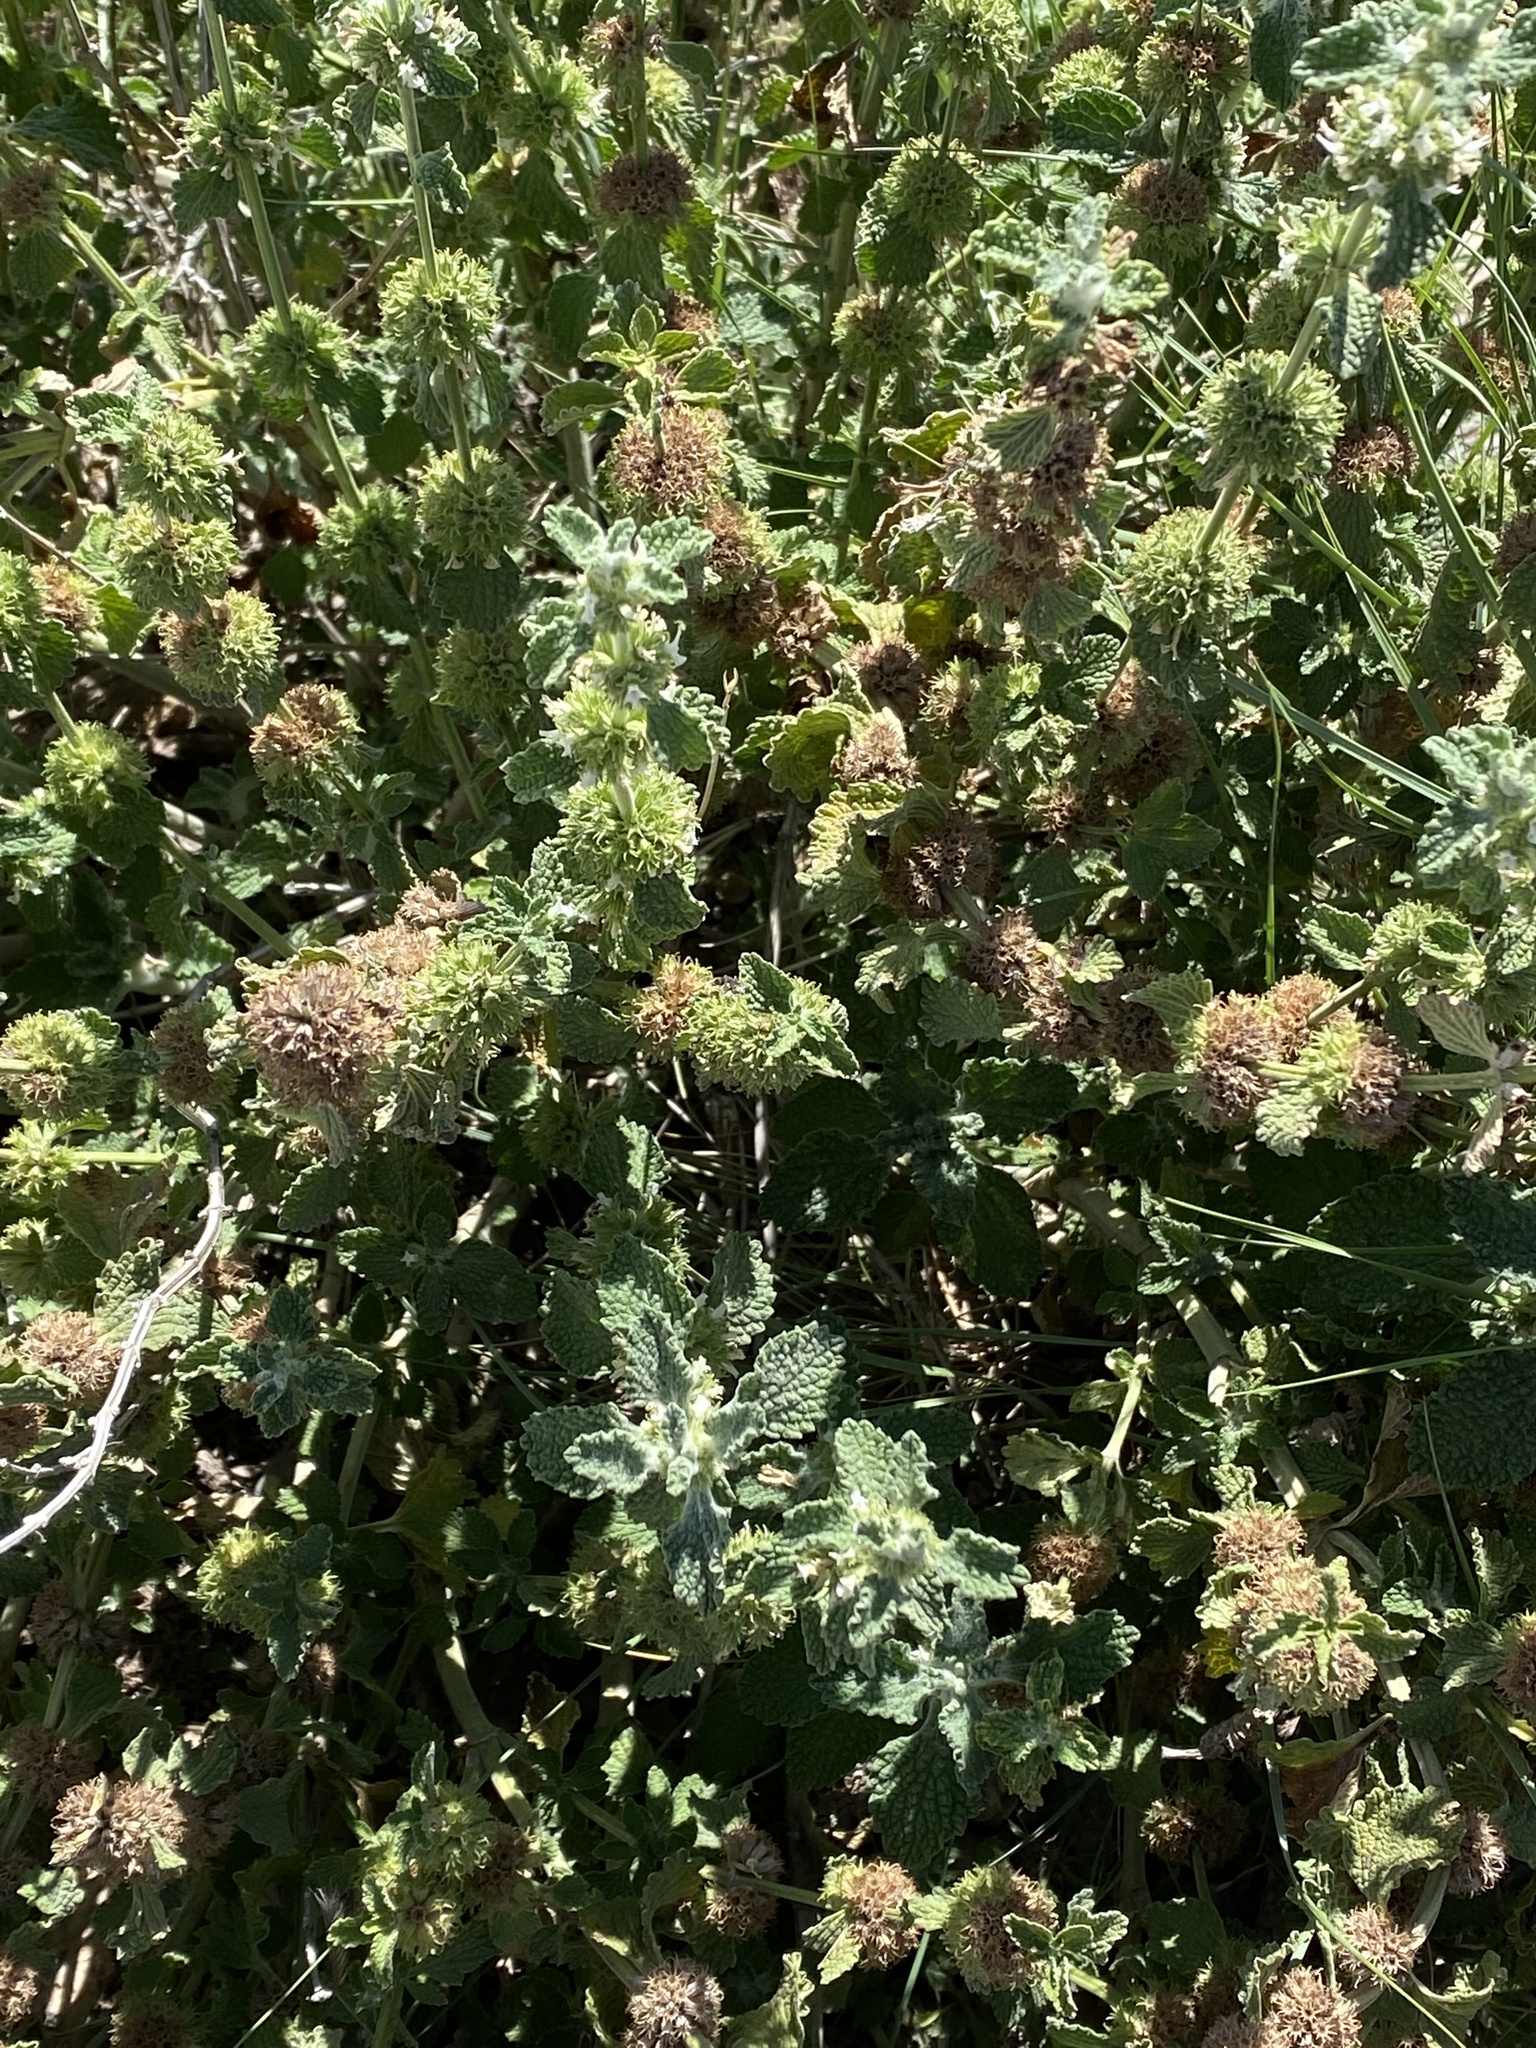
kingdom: Plantae
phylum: Tracheophyta
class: Magnoliopsida
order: Lamiales
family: Lamiaceae
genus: Marrubium
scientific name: Marrubium vulgare
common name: Horehound
